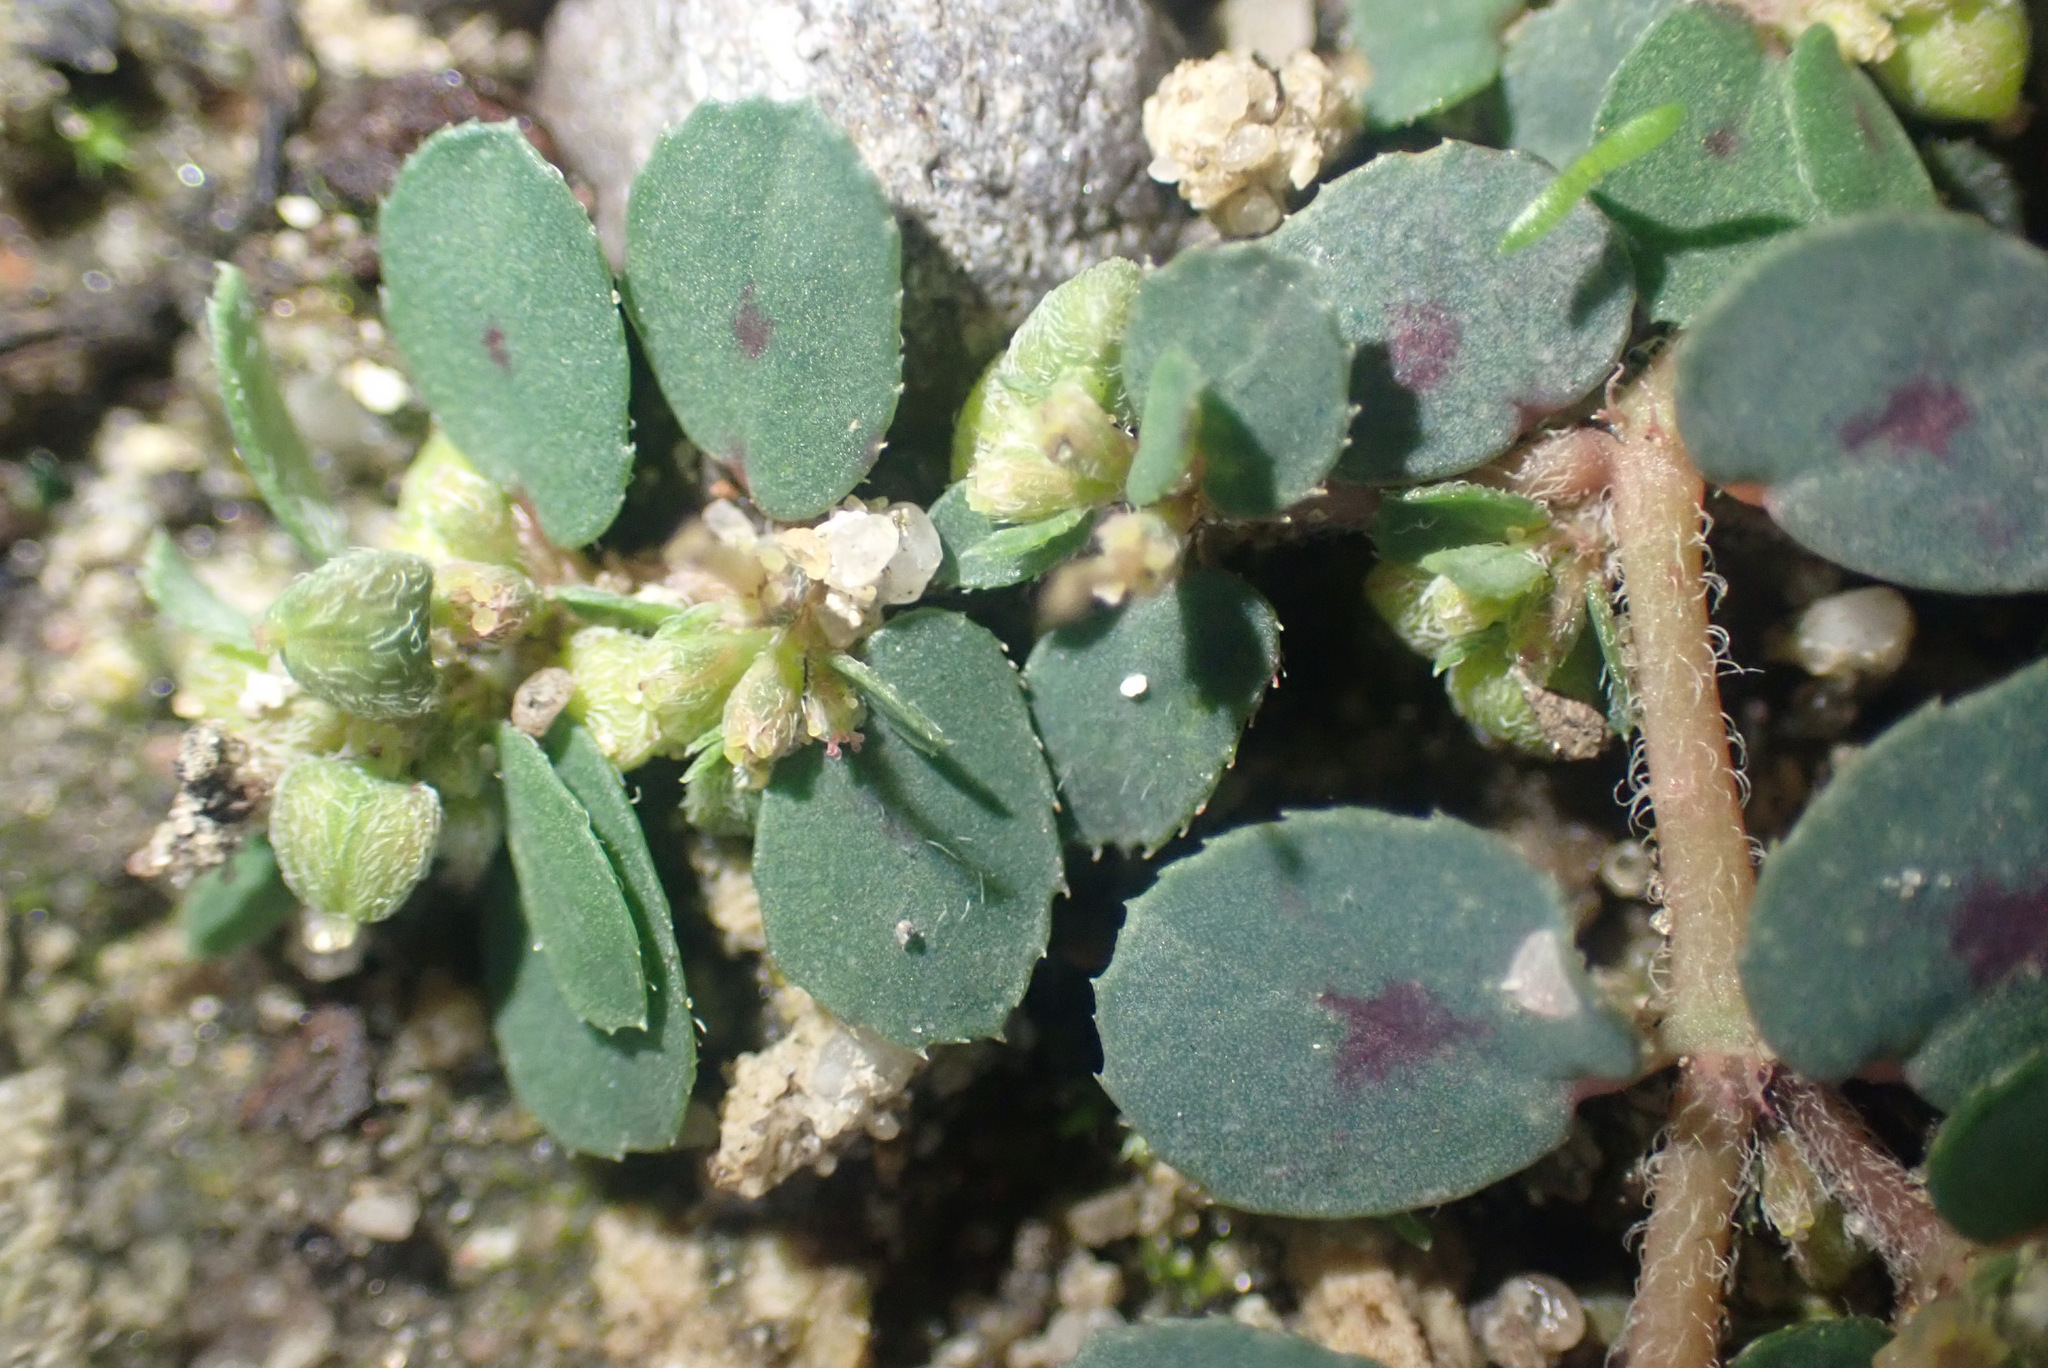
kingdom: Plantae
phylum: Tracheophyta
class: Magnoliopsida
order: Malpighiales
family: Euphorbiaceae
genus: Euphorbia
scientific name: Euphorbia maculata
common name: Spotted spurge
